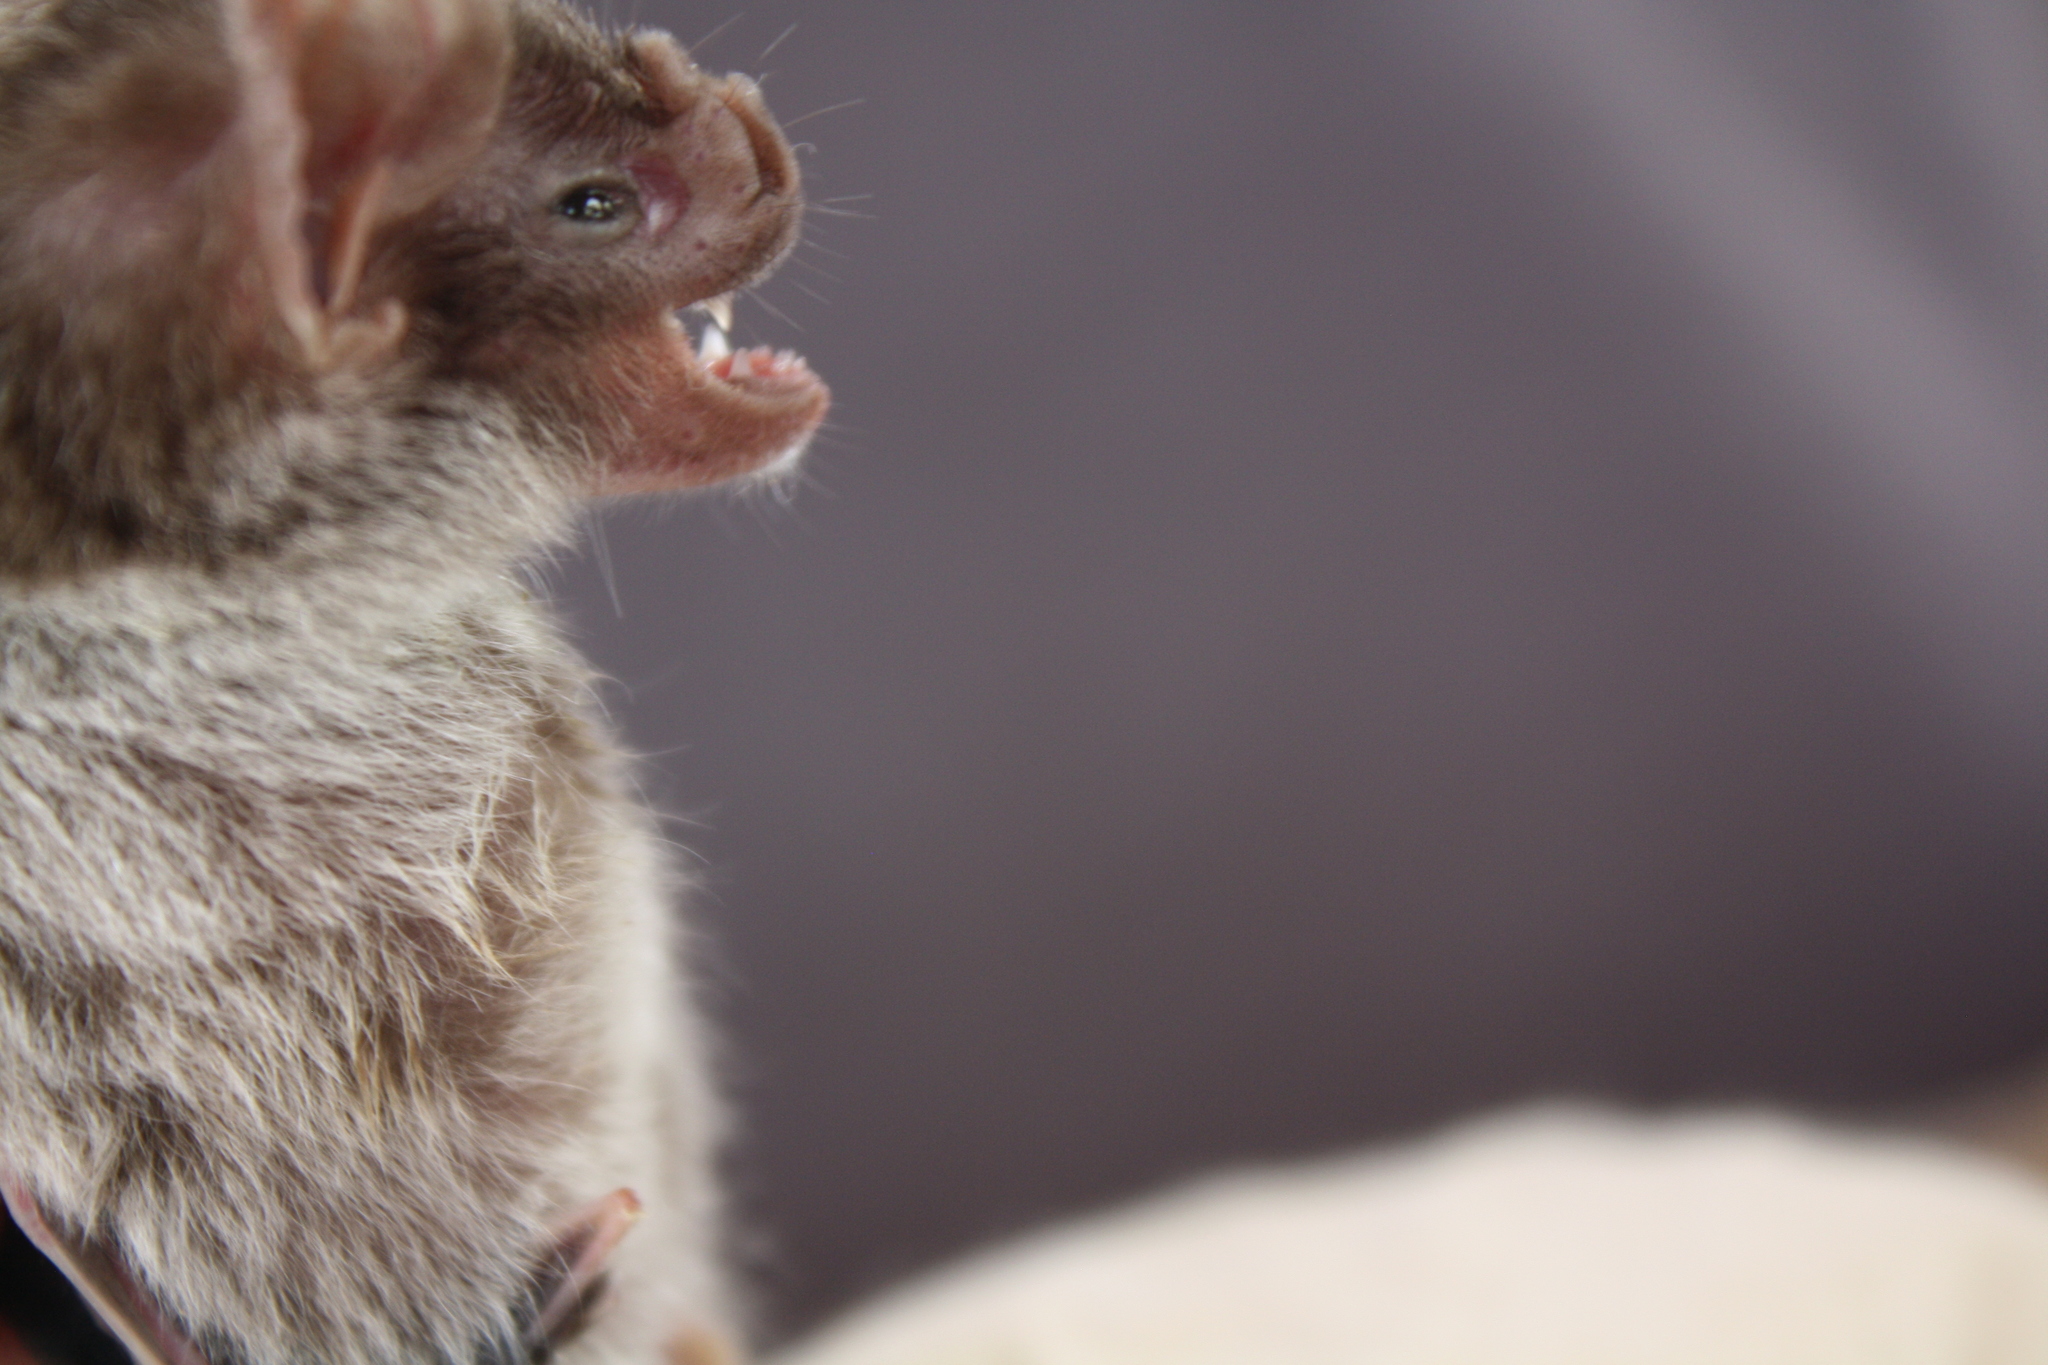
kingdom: Animalia
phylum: Chordata
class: Mammalia
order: Chiroptera
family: Phyllostomidae
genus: Desmodus
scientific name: Desmodus rotundus
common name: Common vampire bat
